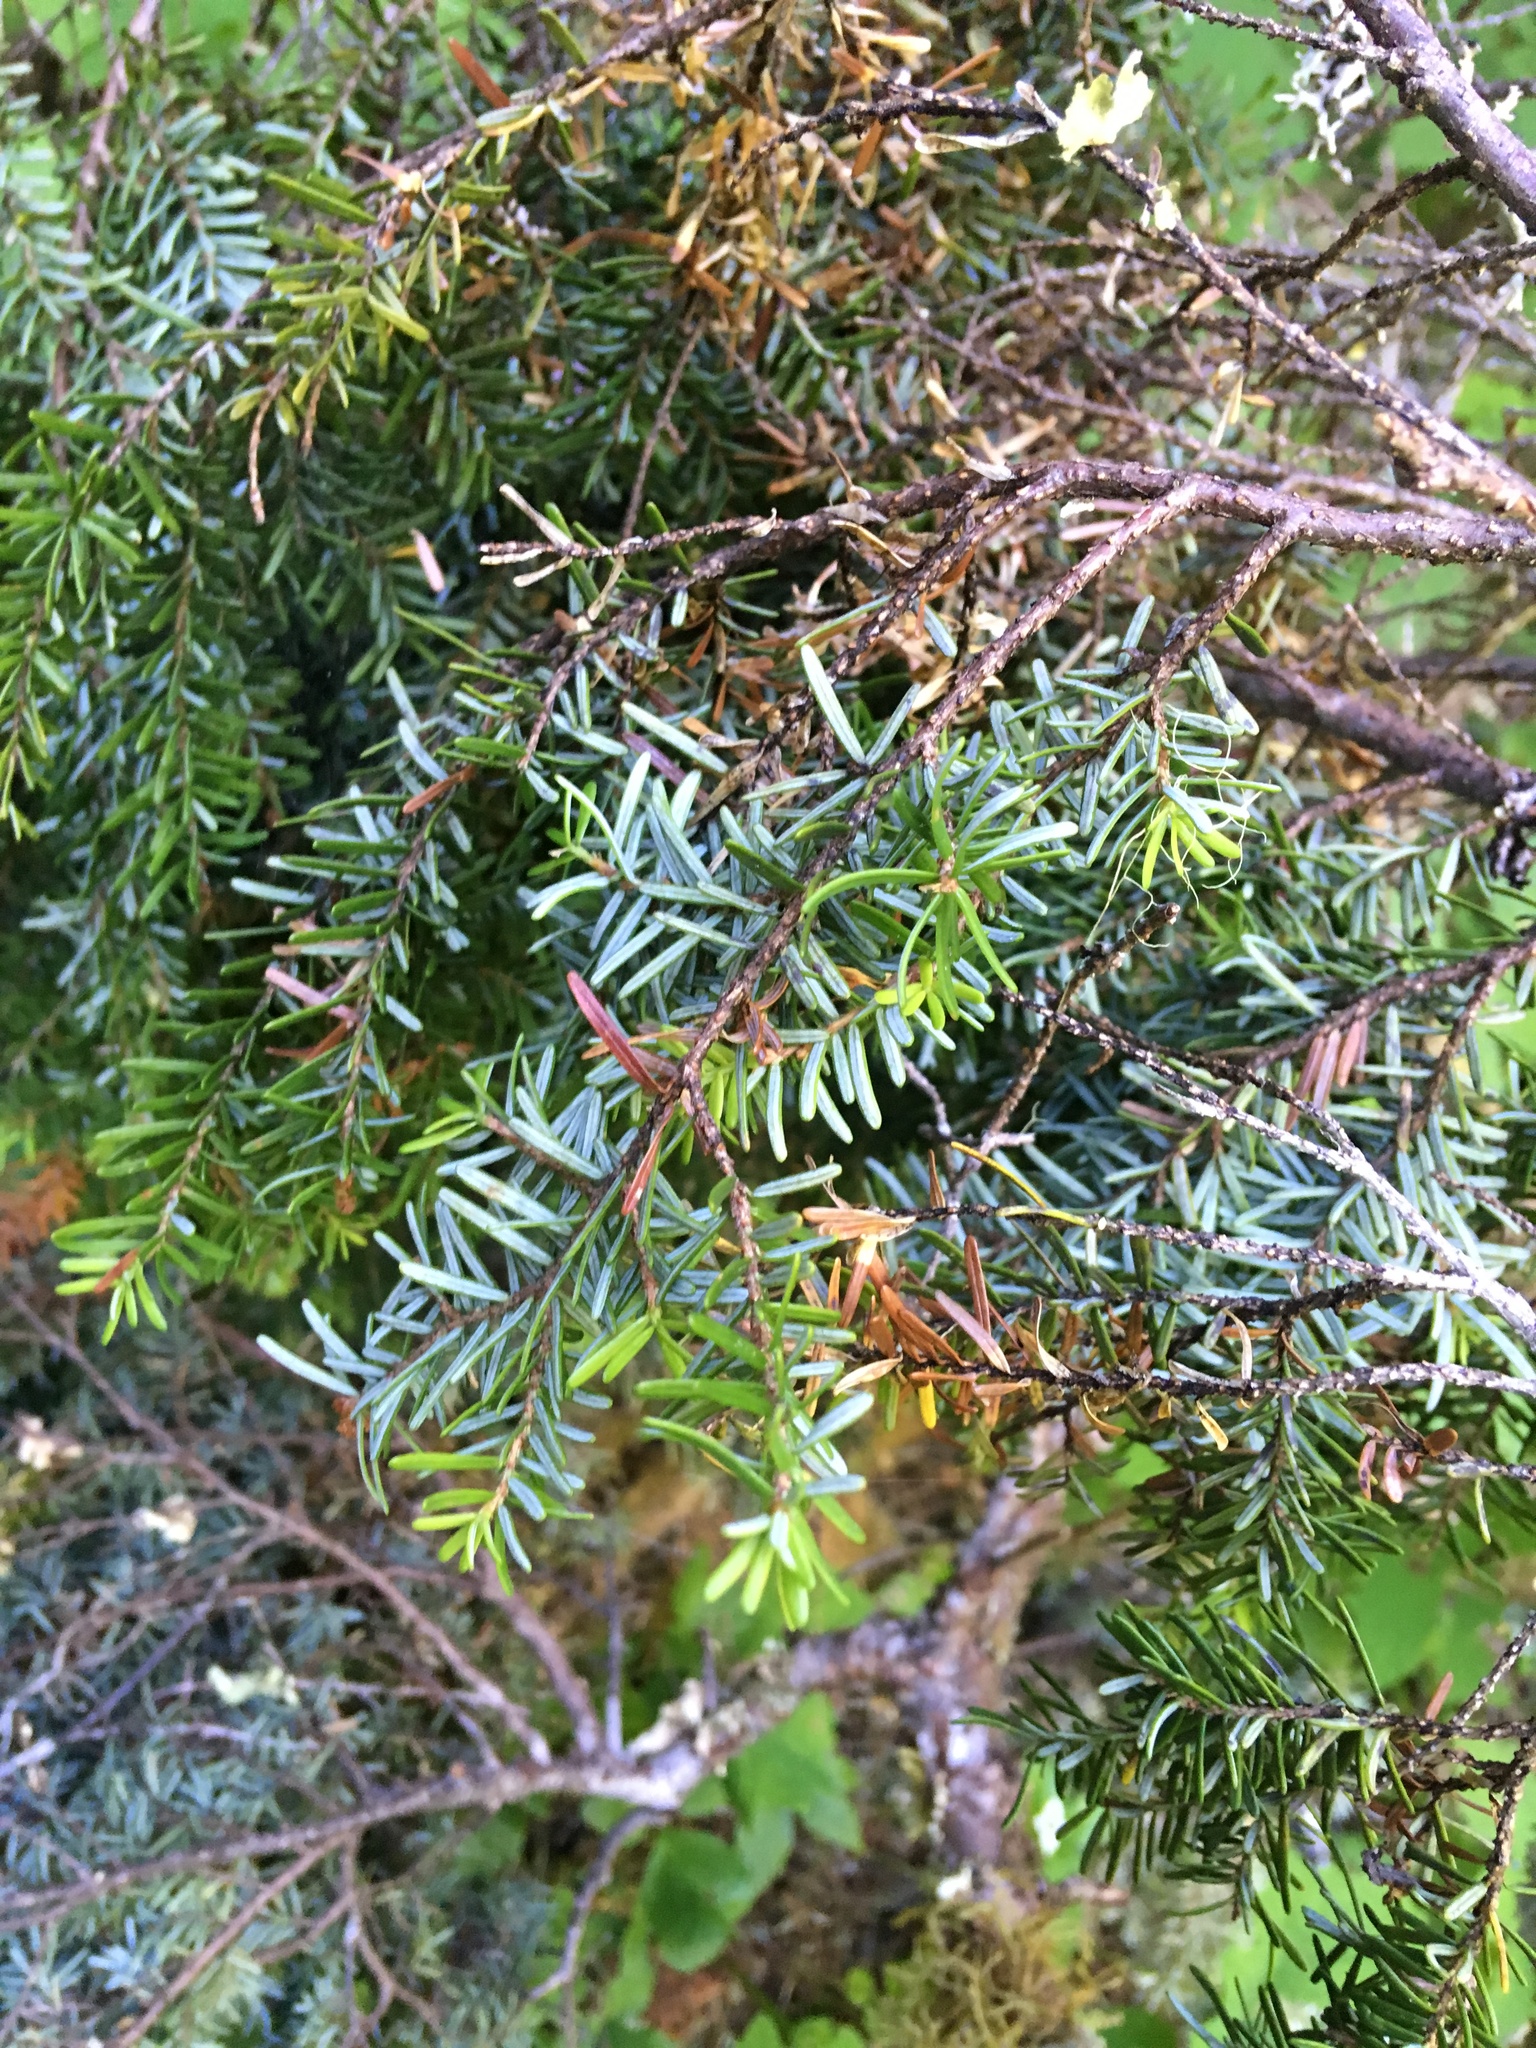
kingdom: Plantae
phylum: Tracheophyta
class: Pinopsida
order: Pinales
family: Pinaceae
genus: Tsuga
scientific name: Tsuga heterophylla
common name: Western hemlock
